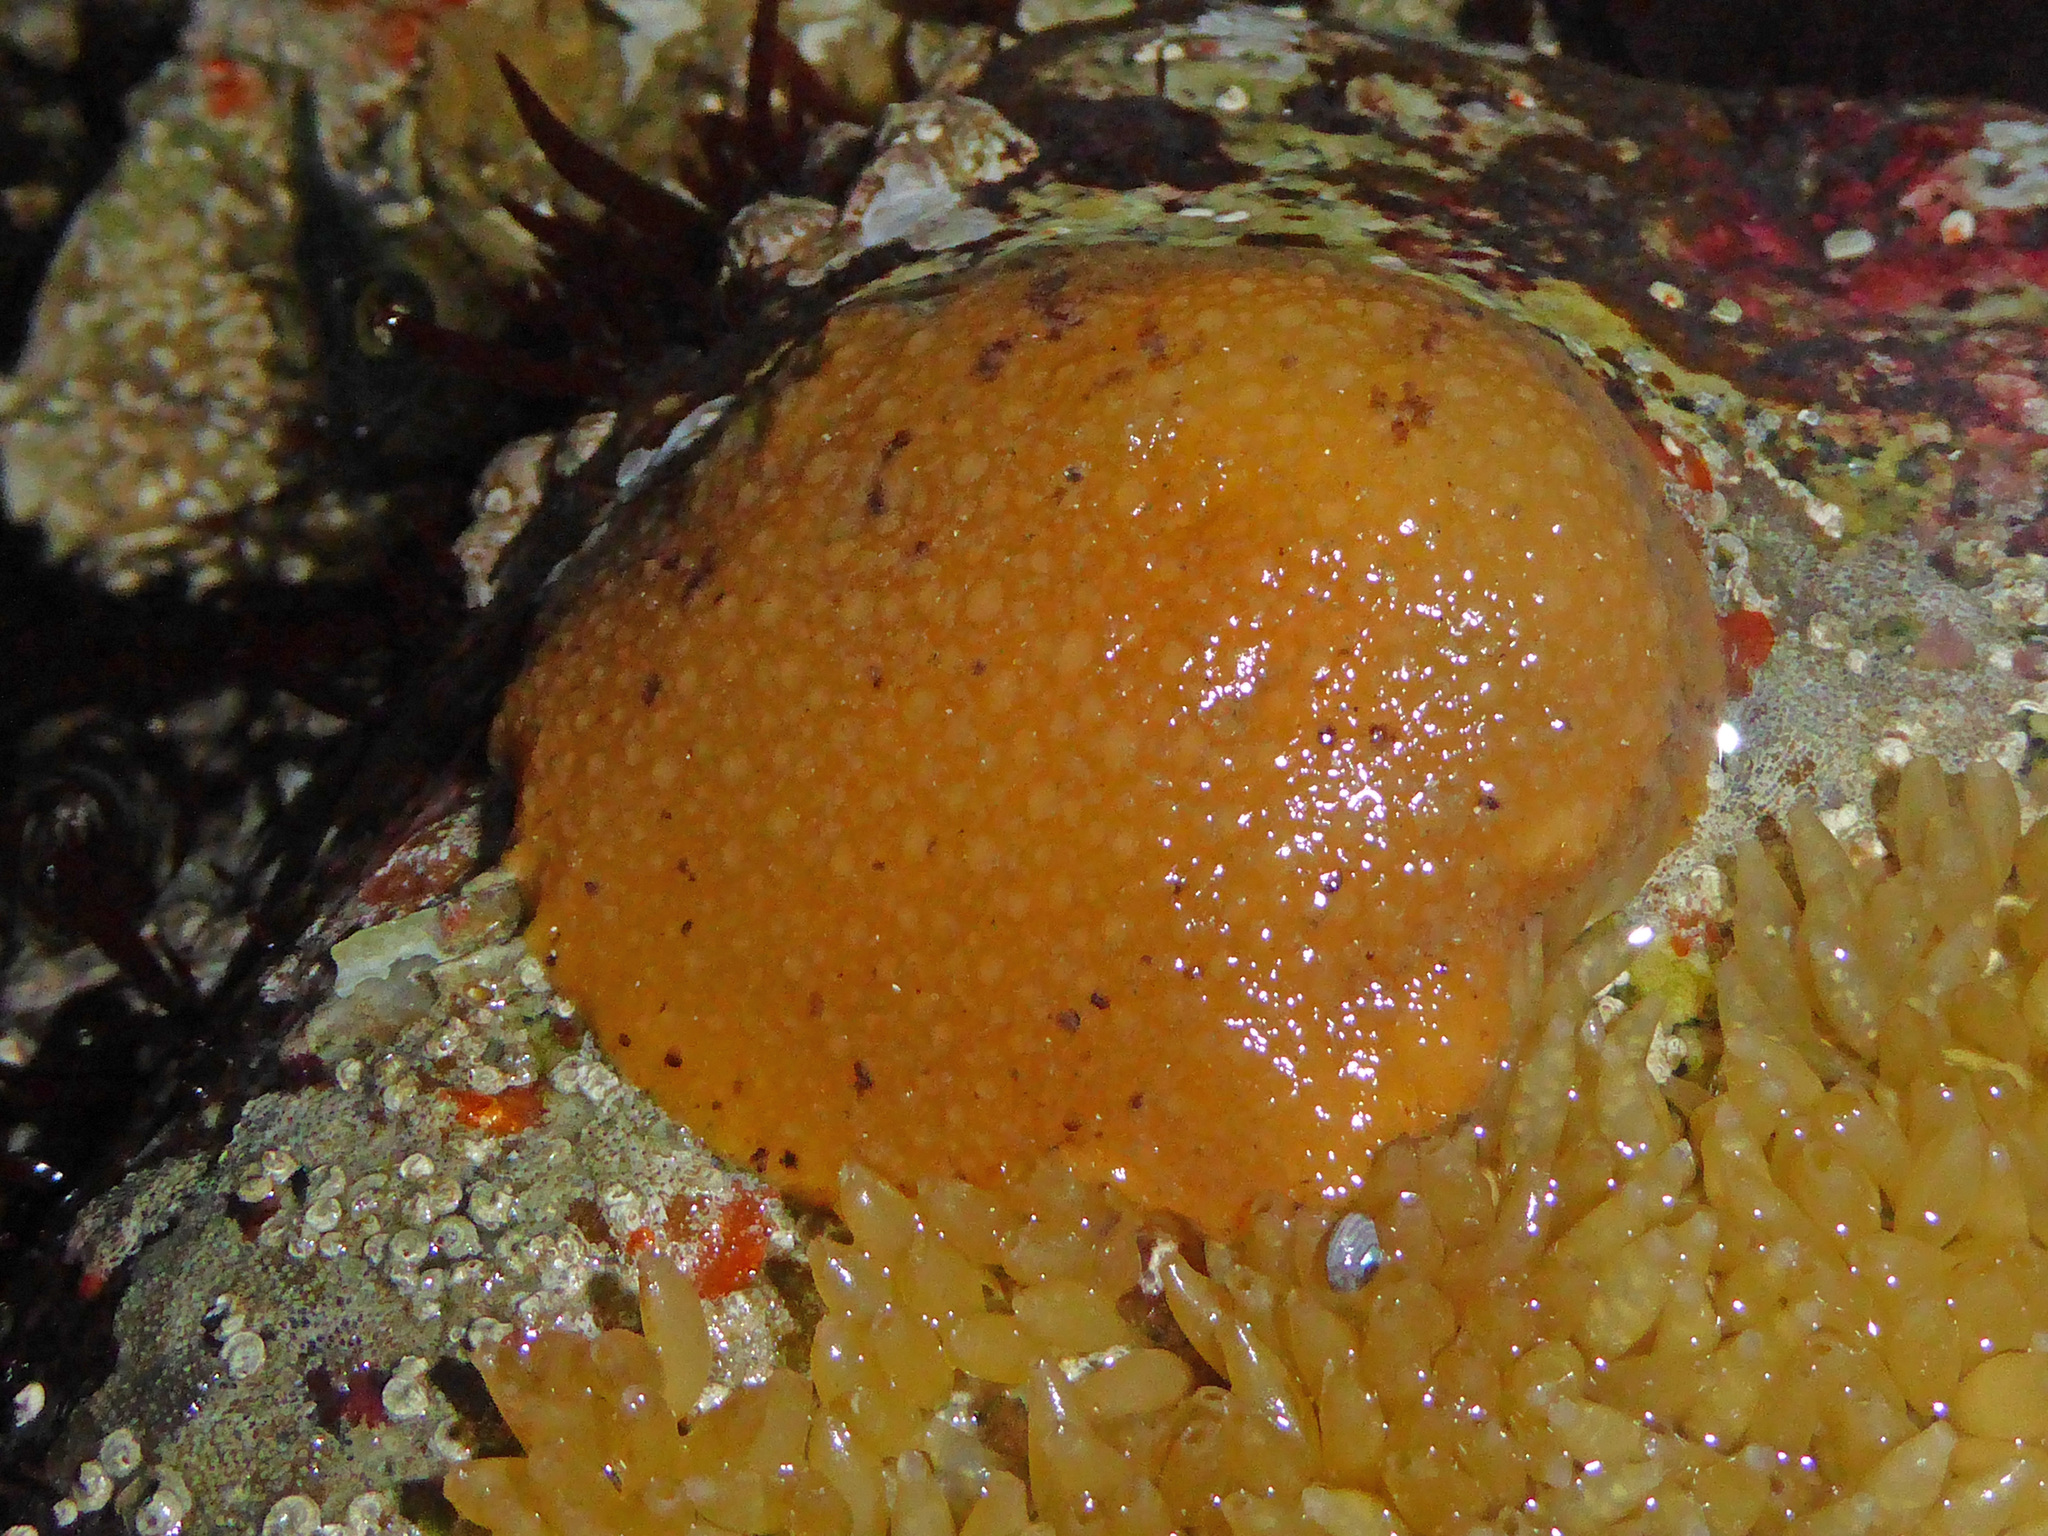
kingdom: Animalia
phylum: Mollusca
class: Gastropoda
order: Nudibranchia
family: Dorididae
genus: Doris
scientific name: Doris montereyensis
